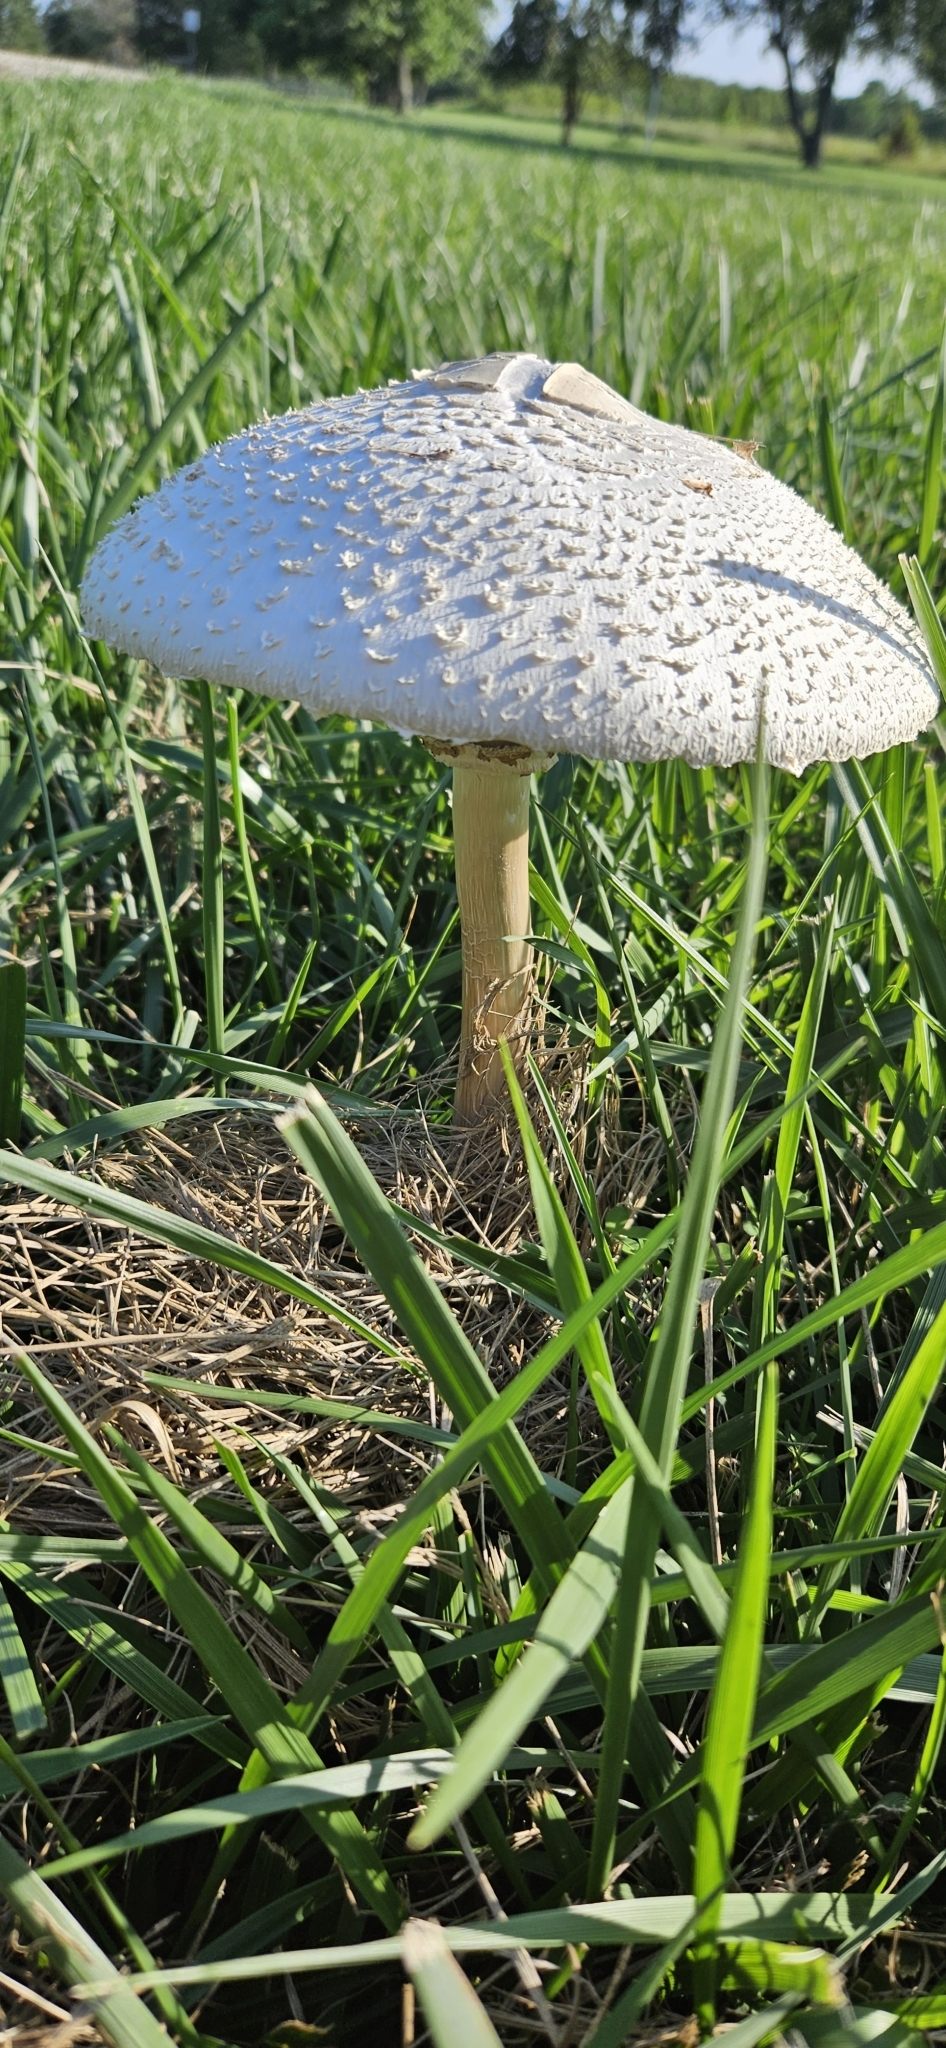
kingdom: Fungi
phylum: Basidiomycota
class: Agaricomycetes
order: Agaricales
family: Agaricaceae
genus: Chlorophyllum
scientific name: Chlorophyllum molybdites
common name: False parasol
